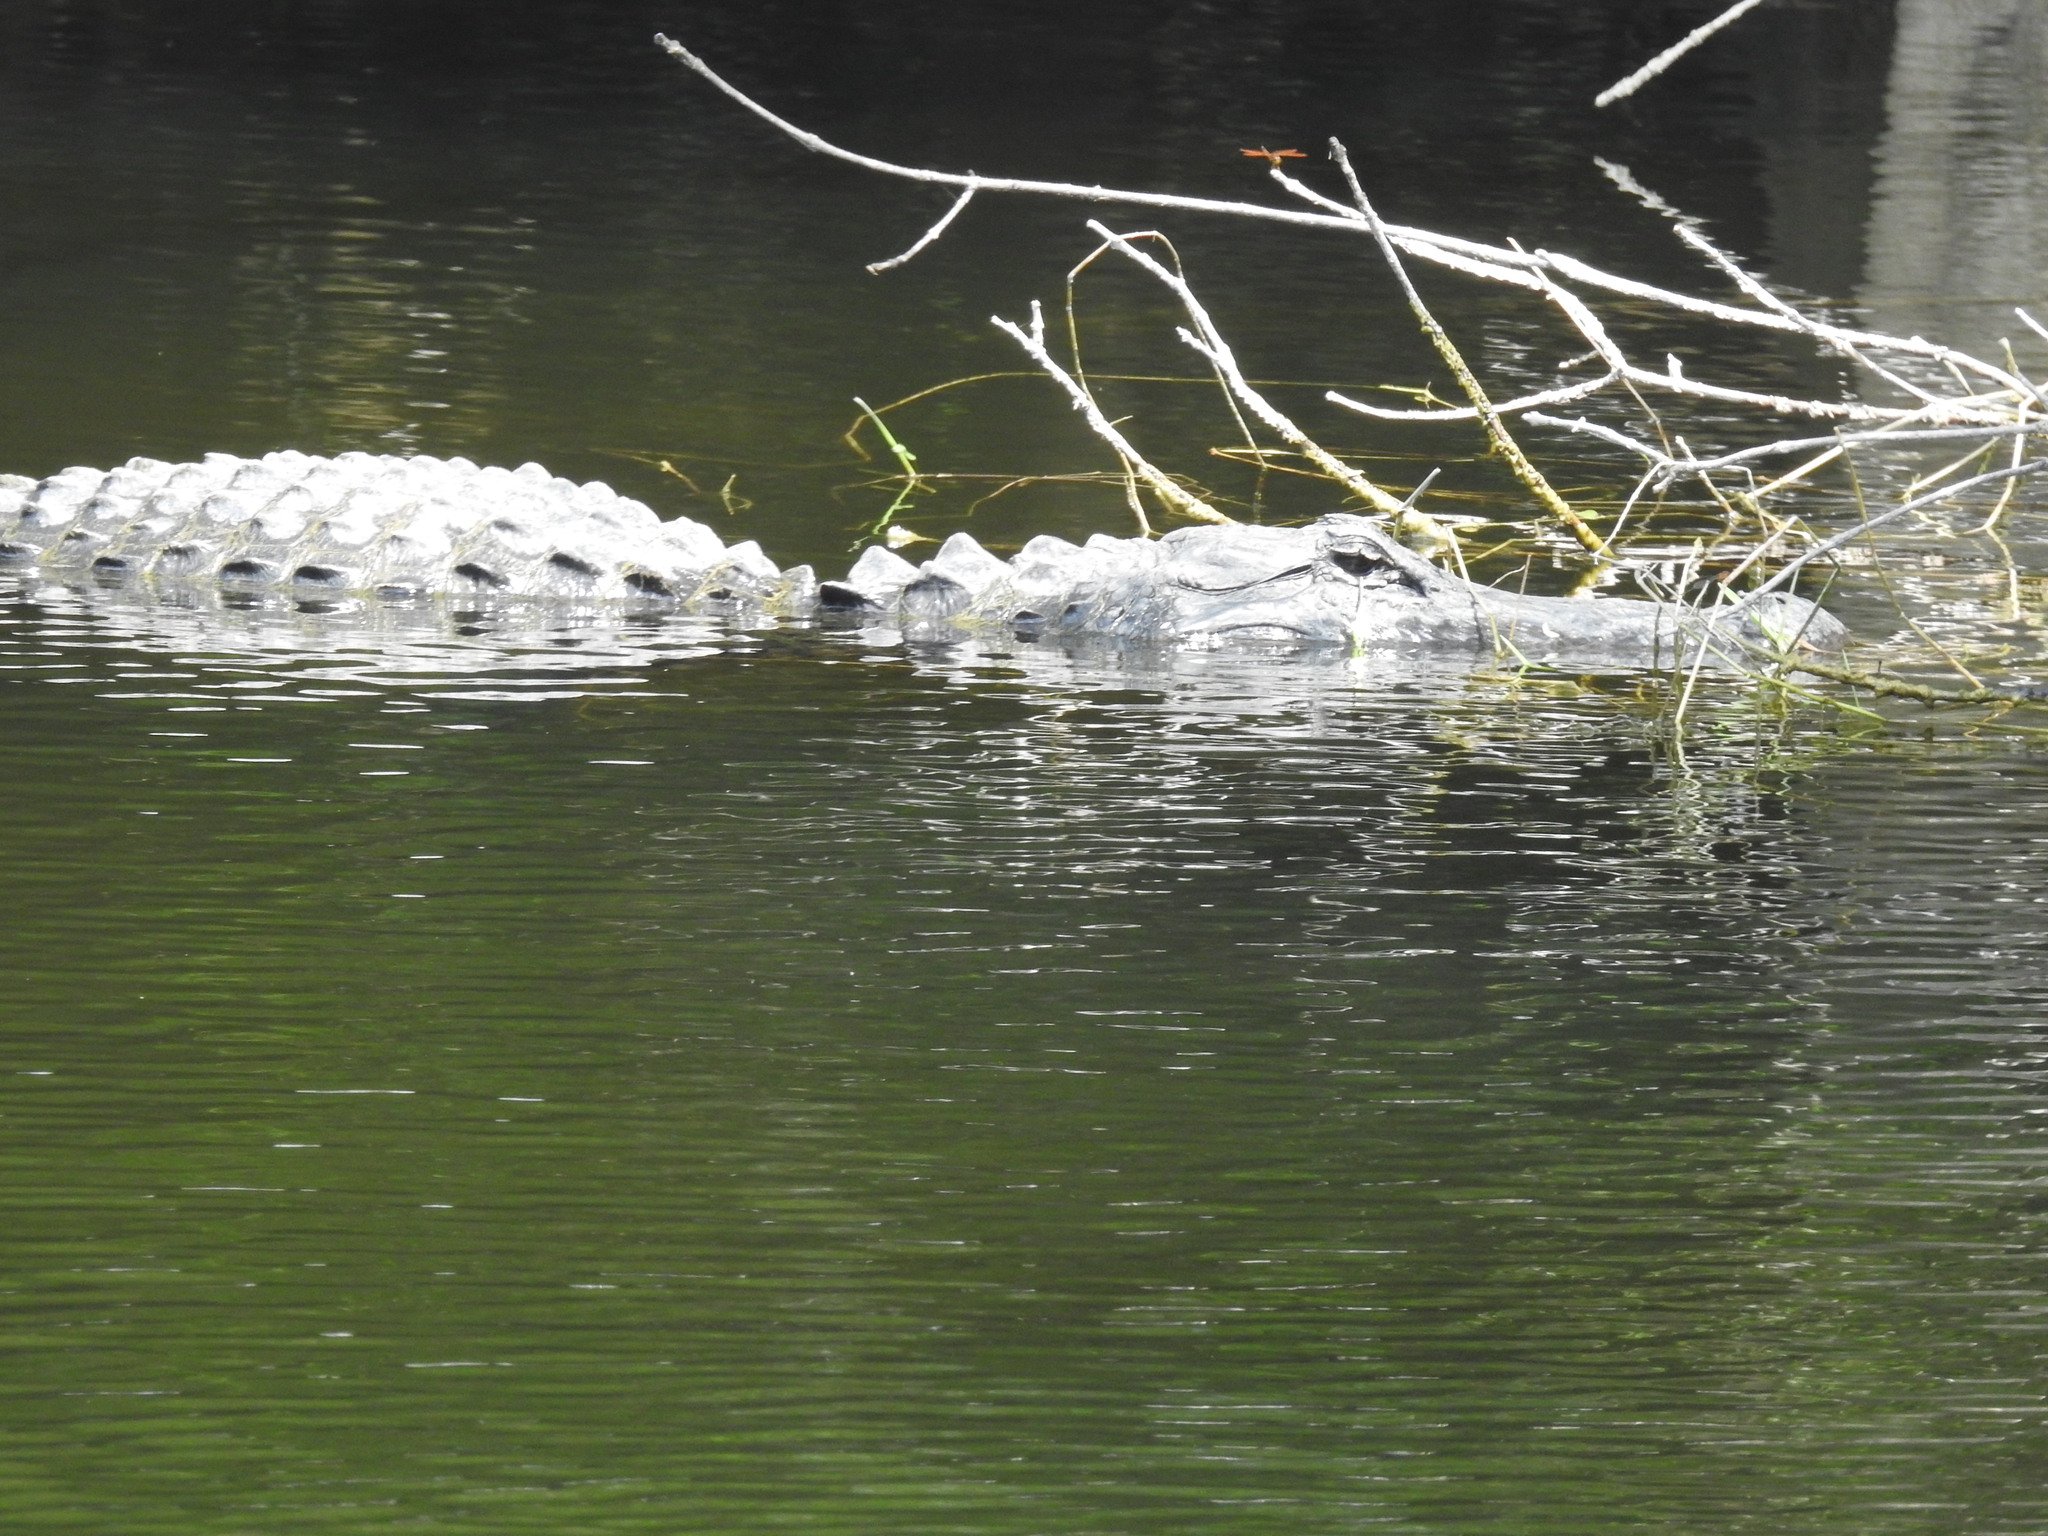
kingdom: Animalia
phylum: Chordata
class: Crocodylia
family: Alligatoridae
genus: Alligator
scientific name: Alligator mississippiensis
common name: American alligator
